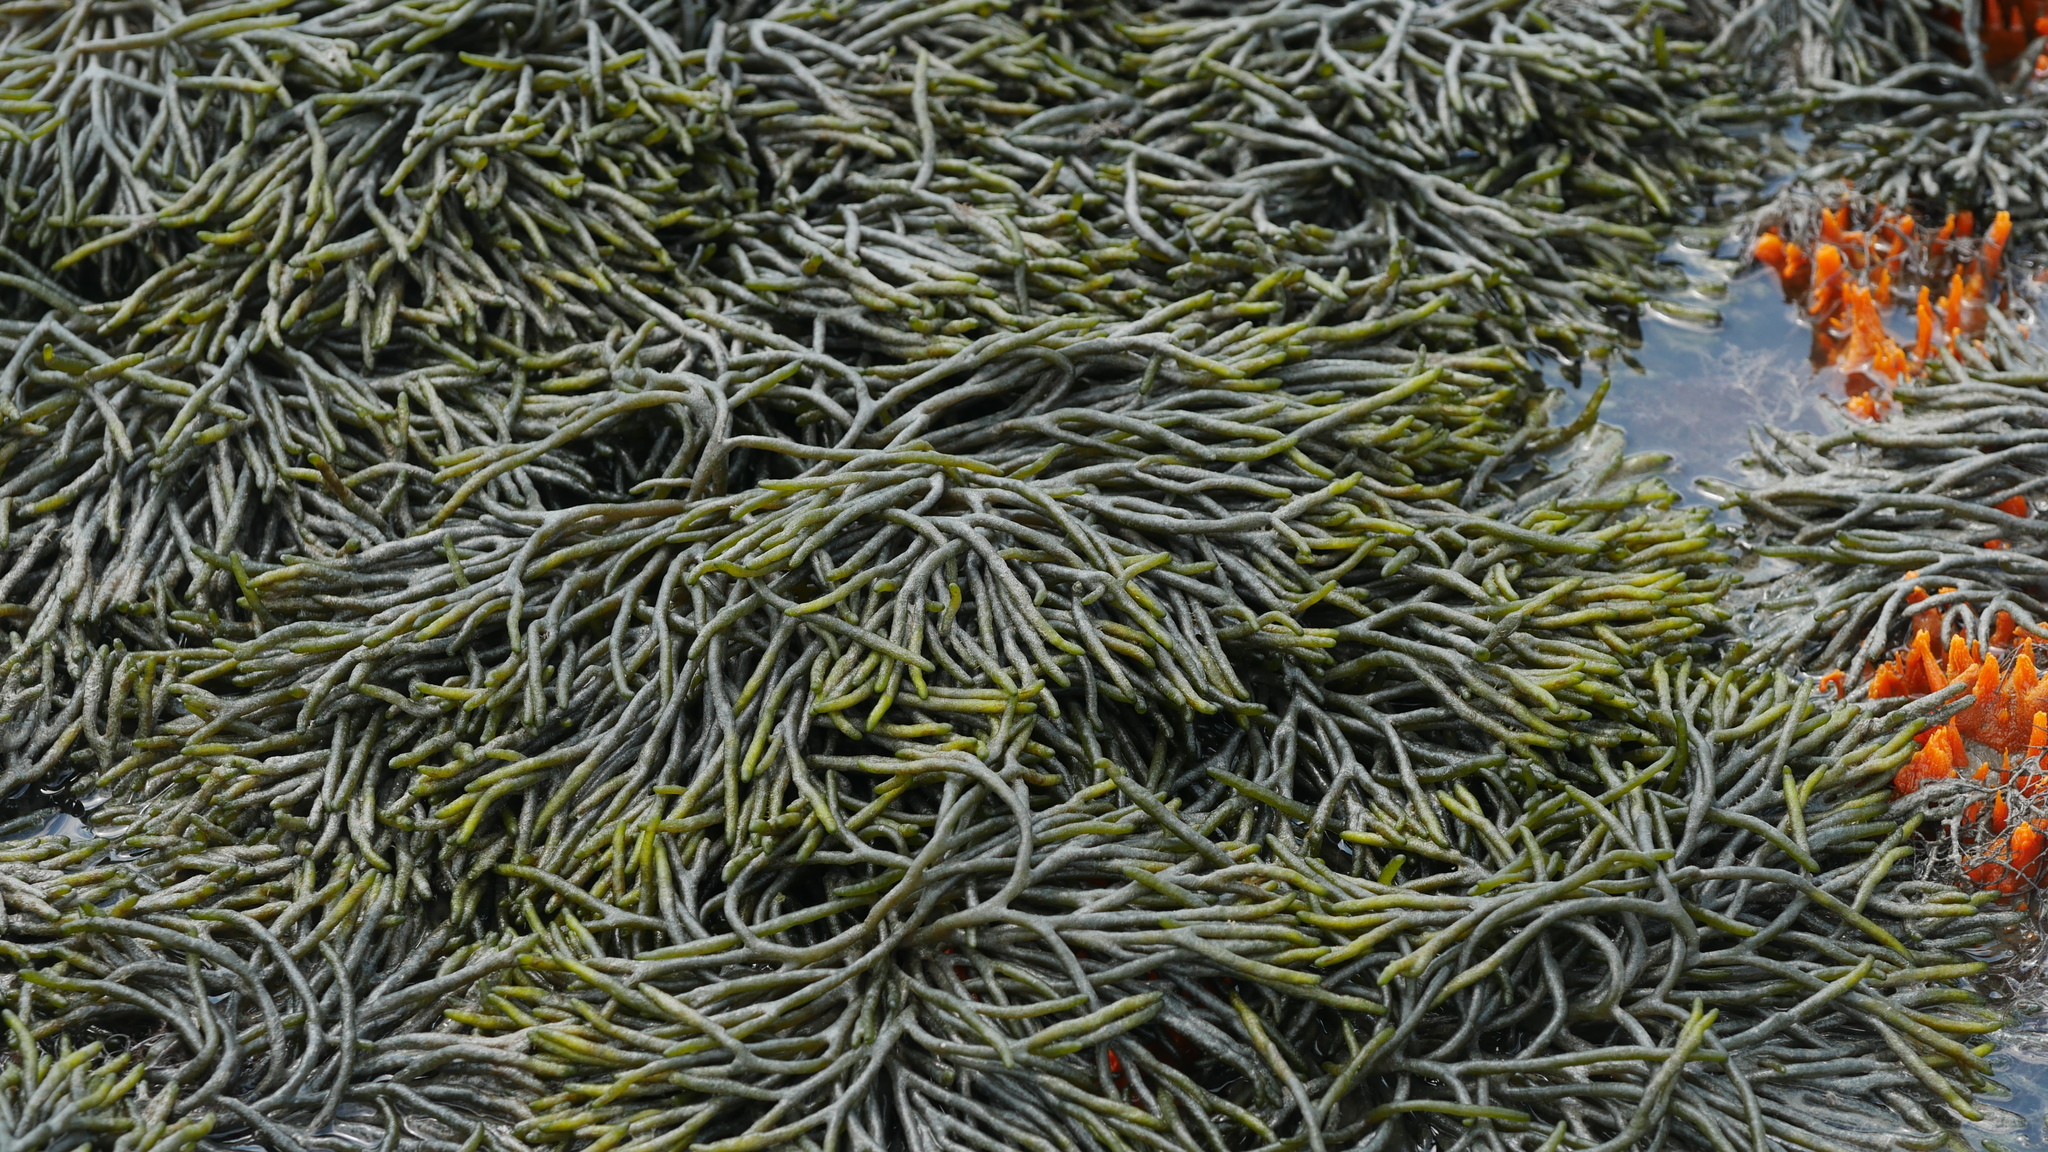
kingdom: Plantae
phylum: Chlorophyta
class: Ulvophyceae
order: Bryopsidales
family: Codiaceae
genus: Codium
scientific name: Codium fragile
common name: Dead man's fingers
